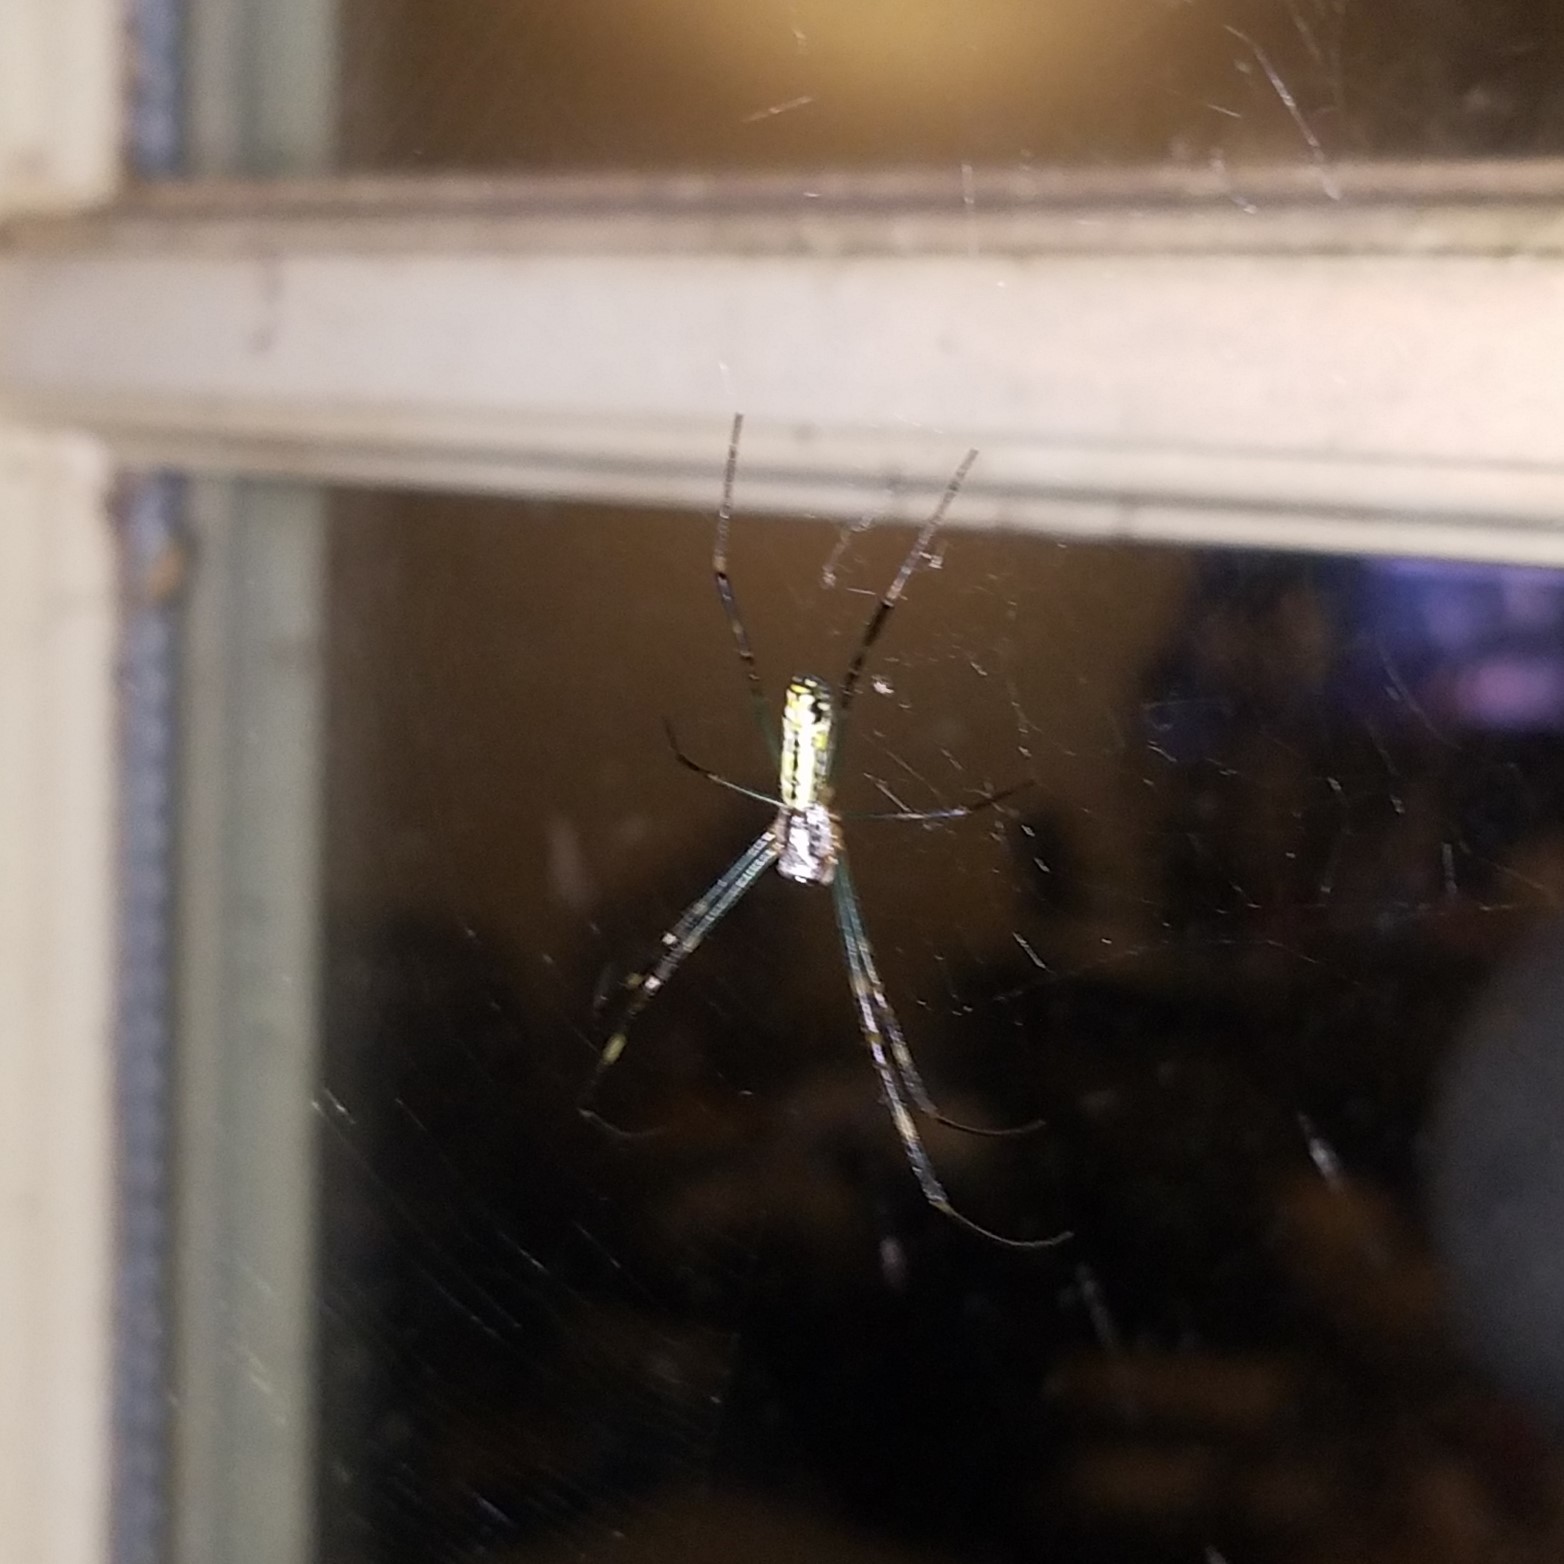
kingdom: Animalia
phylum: Arthropoda
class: Arachnida
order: Araneae
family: Araneidae
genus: Trichonephila
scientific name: Trichonephila clavata
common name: Jorō spider
